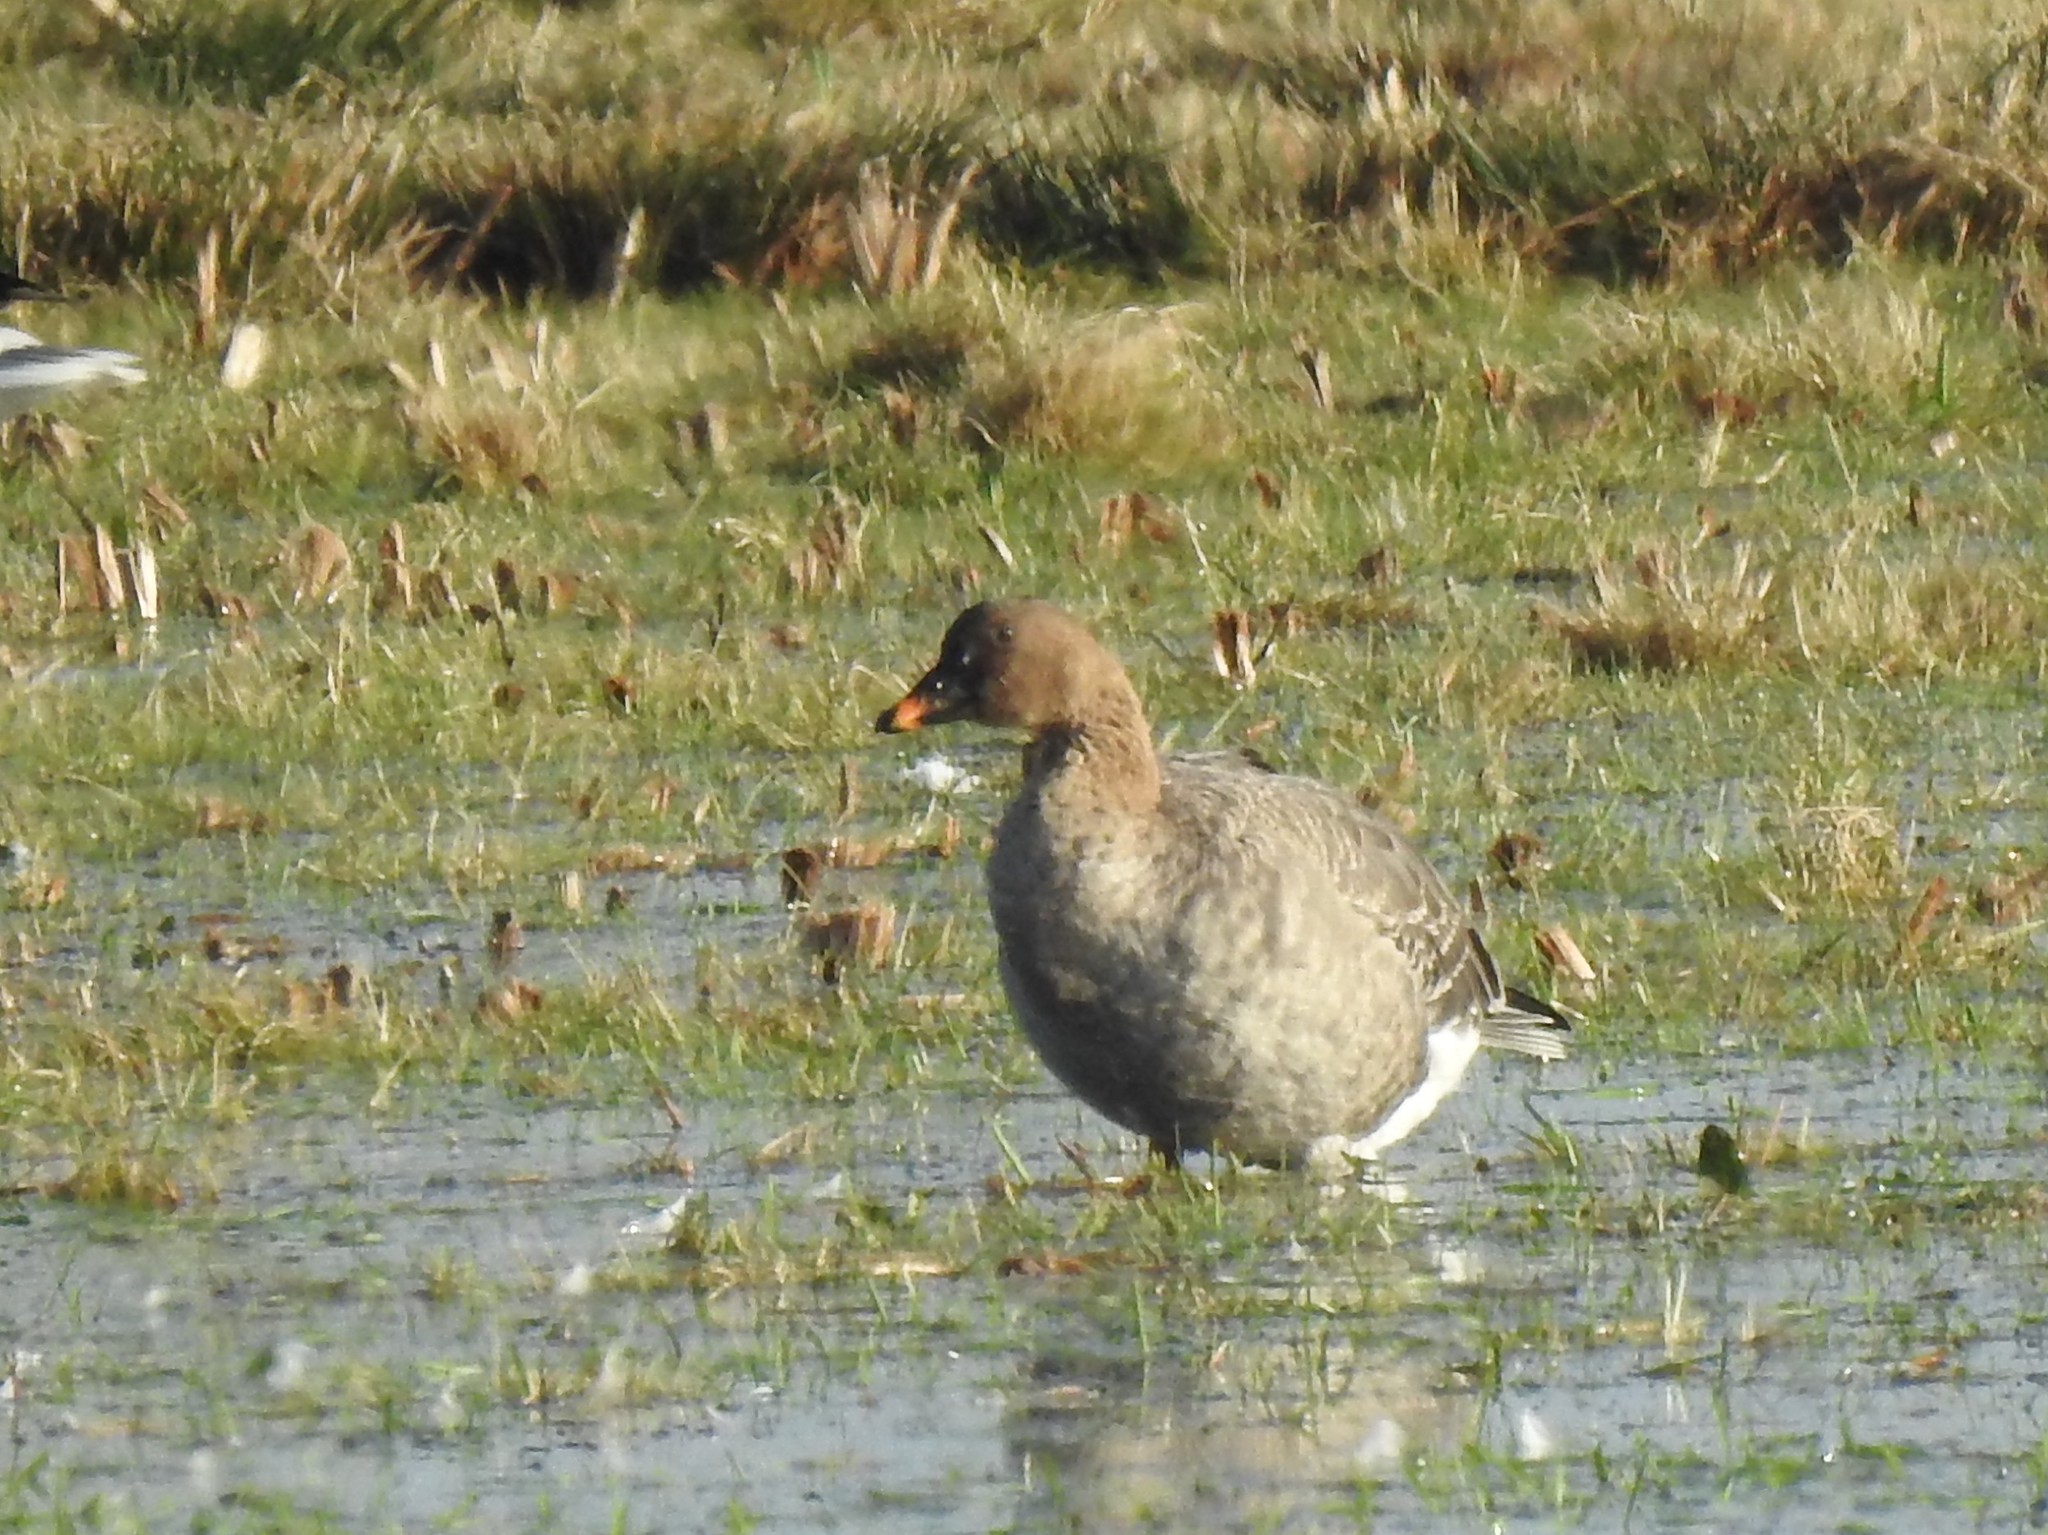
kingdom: Animalia
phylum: Chordata
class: Aves
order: Anseriformes
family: Anatidae
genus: Anser
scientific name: Anser serrirostris
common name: Tundra bean goose
